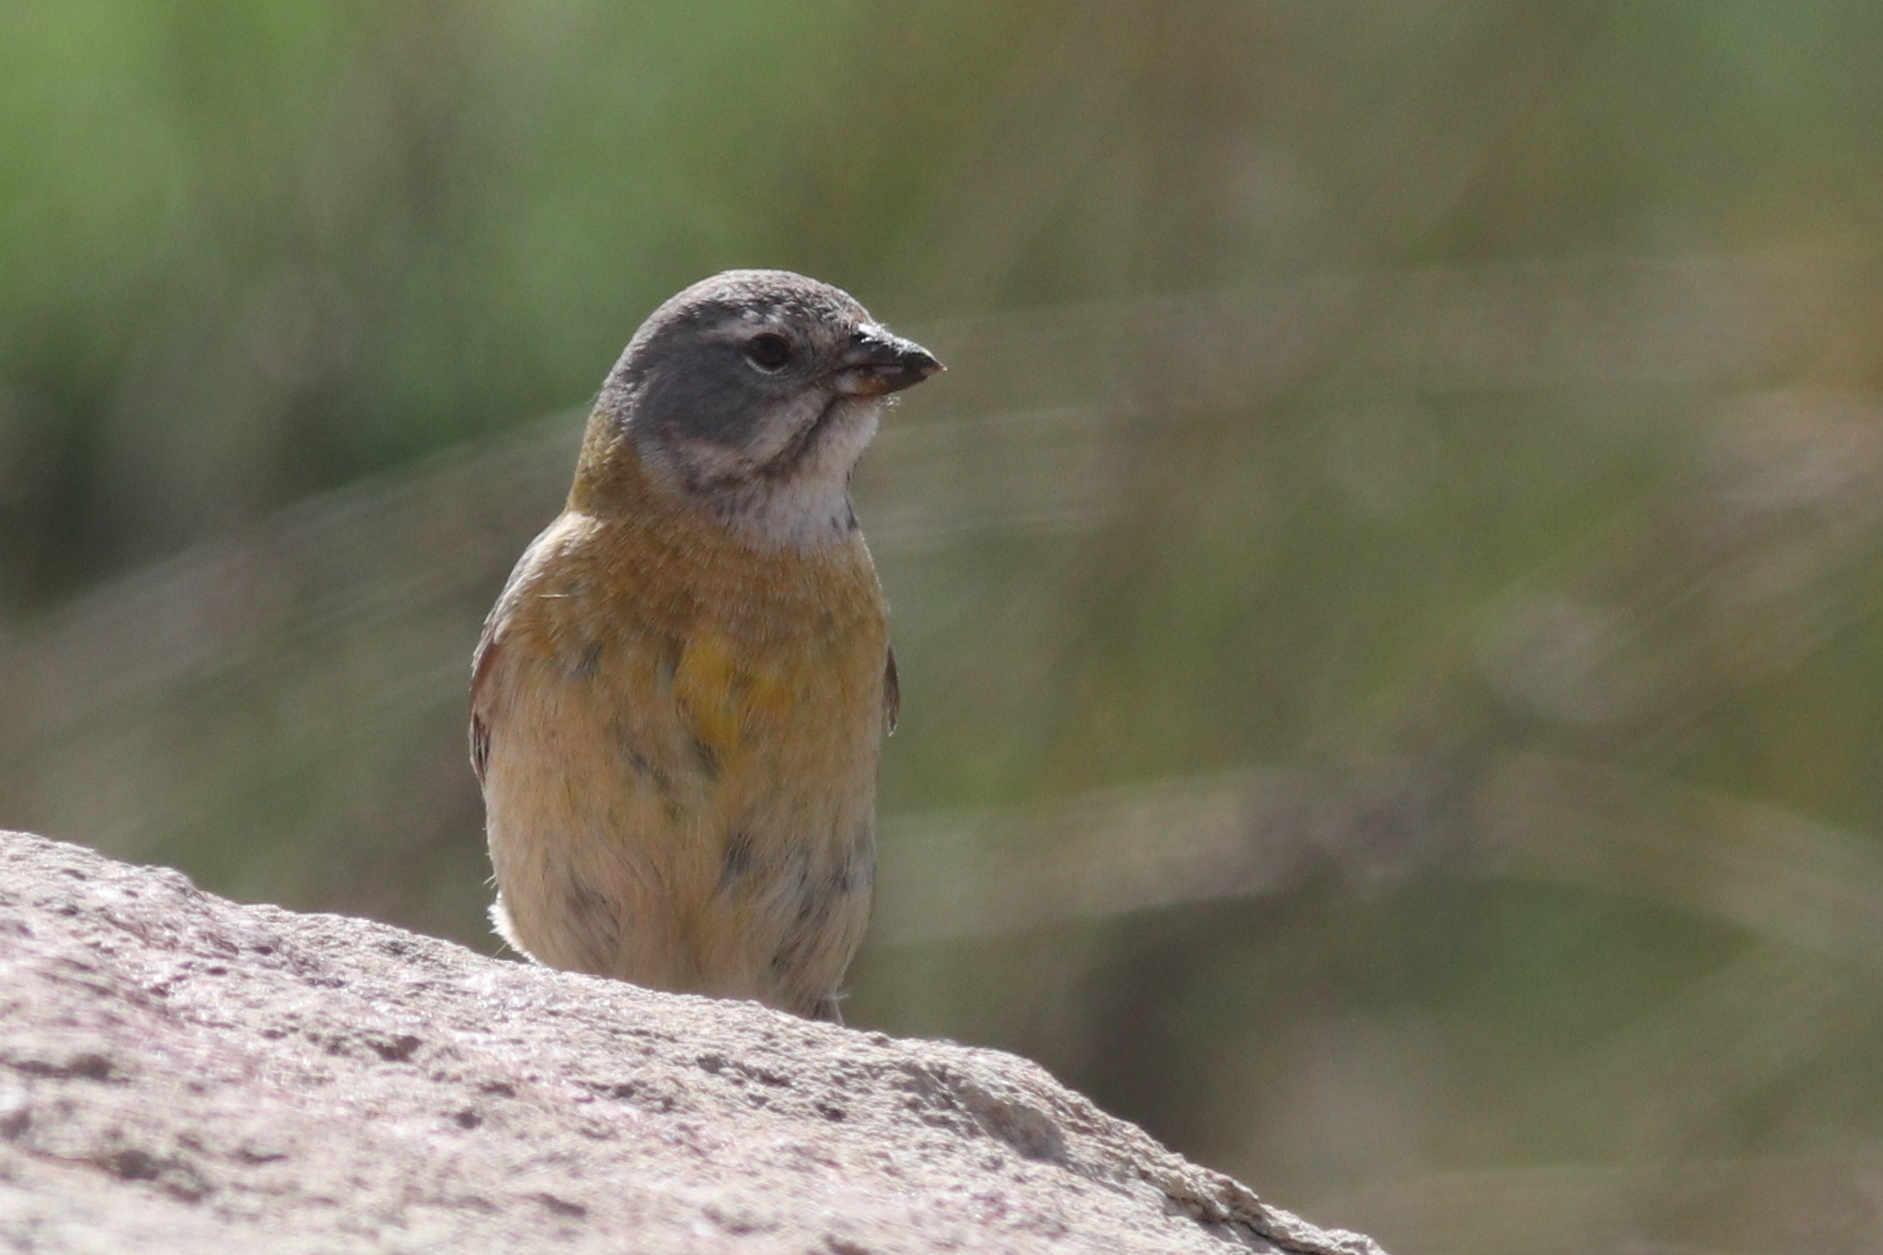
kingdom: Animalia
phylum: Chordata
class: Aves
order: Passeriformes
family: Thraupidae
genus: Phrygilus
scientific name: Phrygilus gayi
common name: Grey-hooded sierra finch
